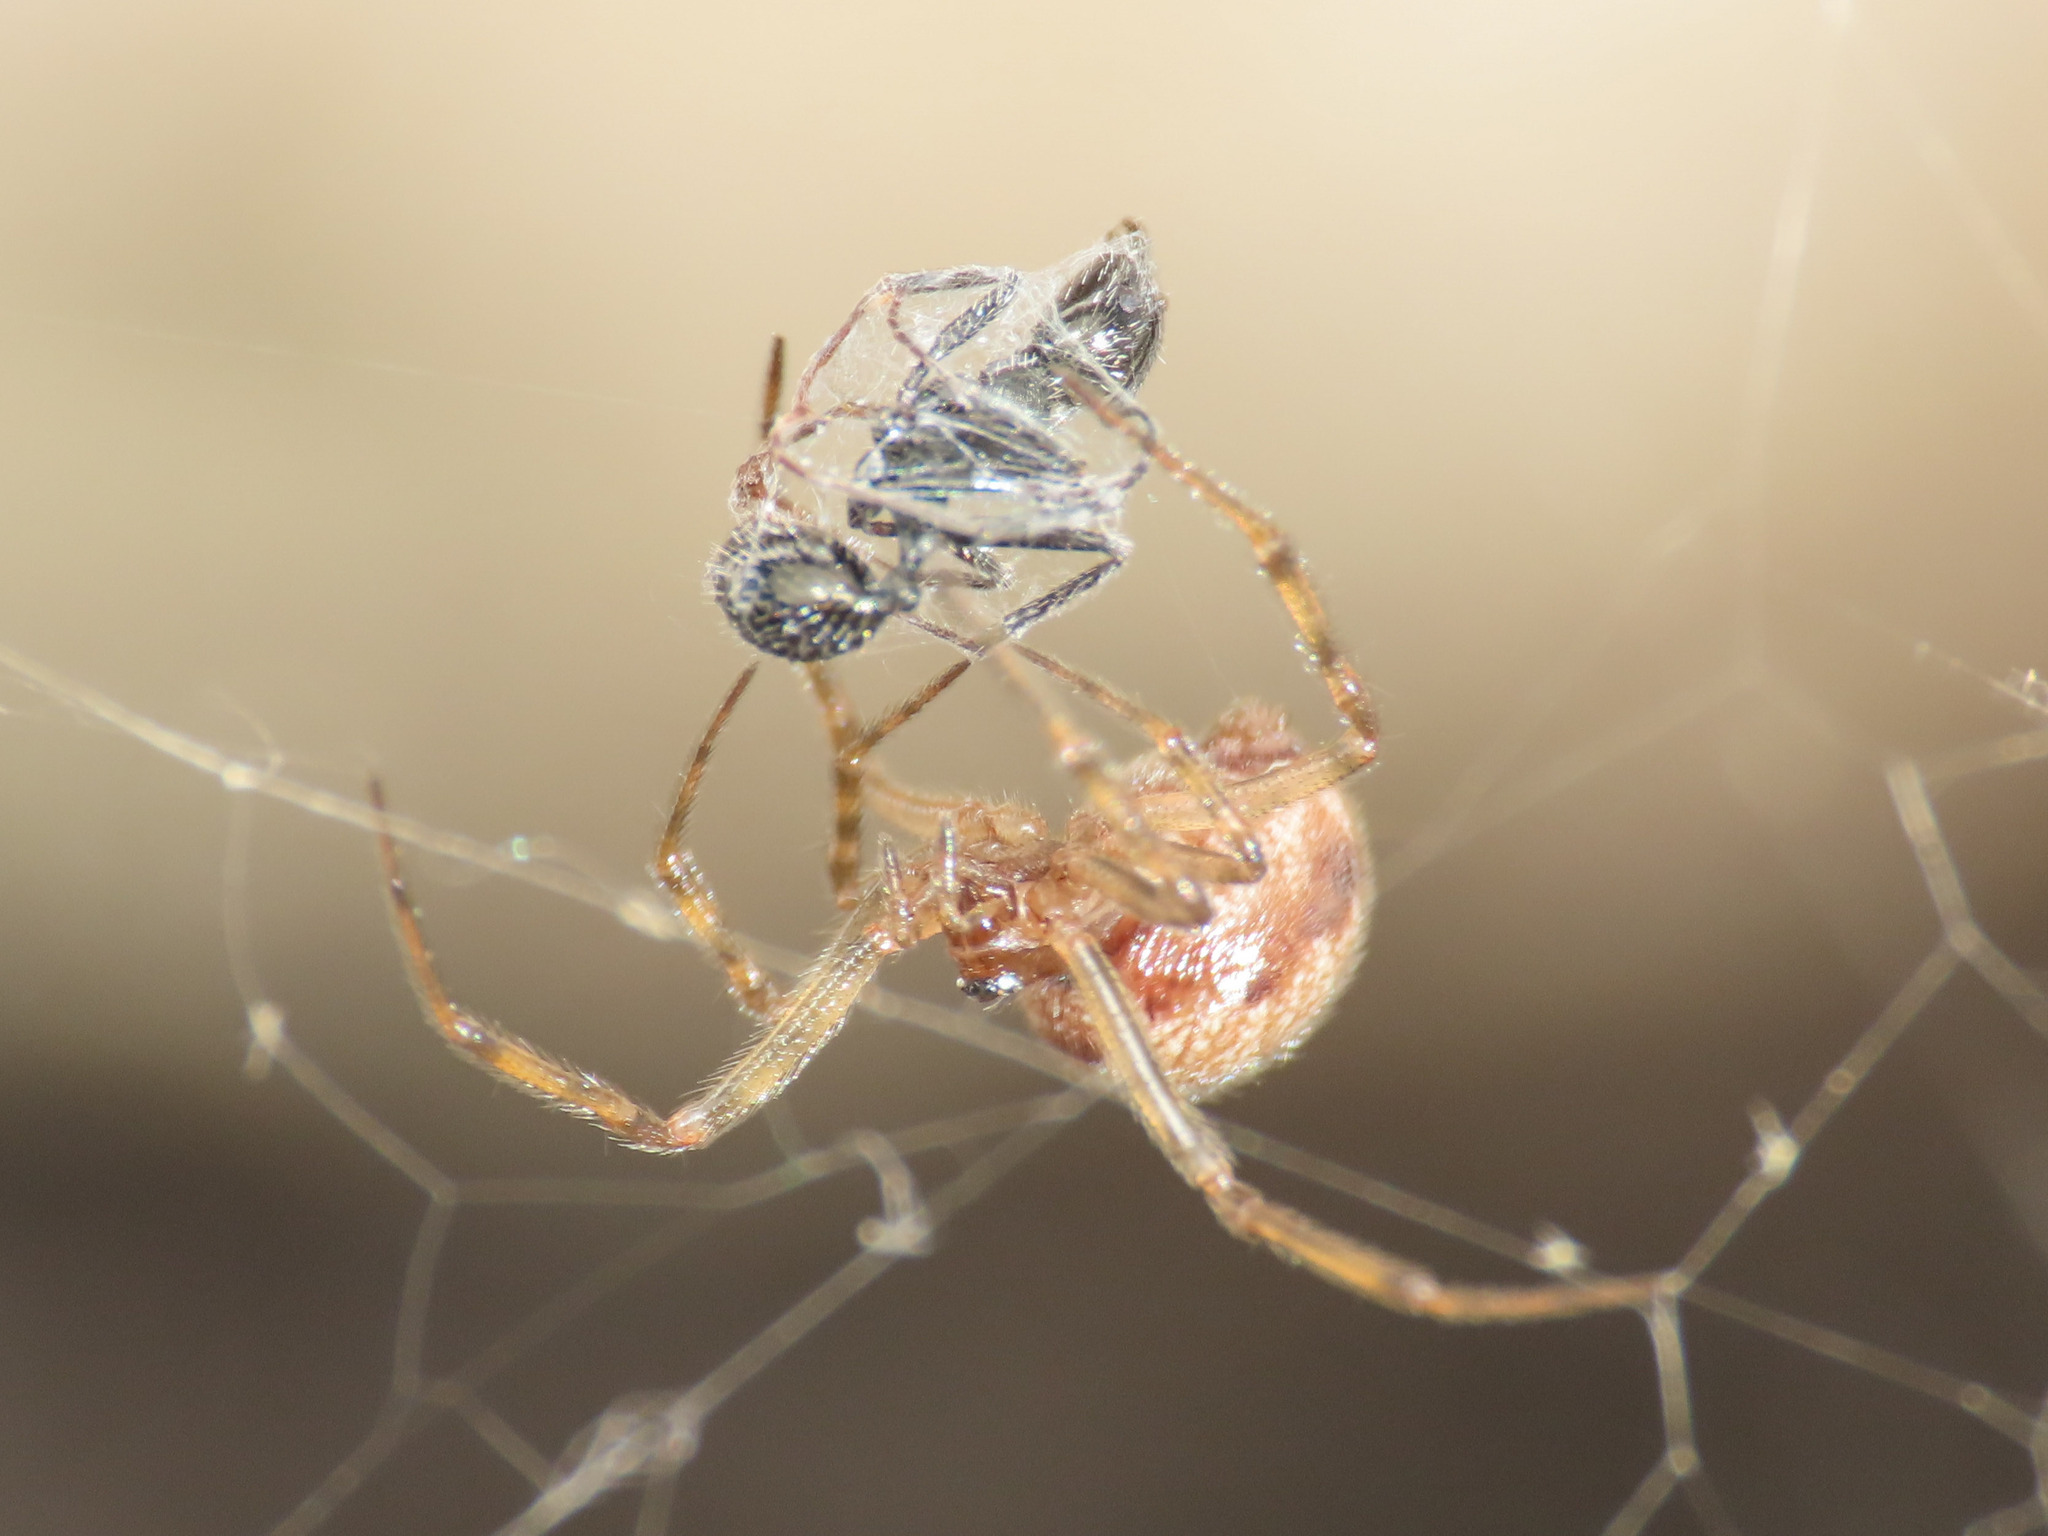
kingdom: Animalia
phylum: Arthropoda
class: Arachnida
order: Araneae
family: Theridiidae
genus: Steatoda
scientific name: Steatoda triangulosa
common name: Triangulate bud spider
